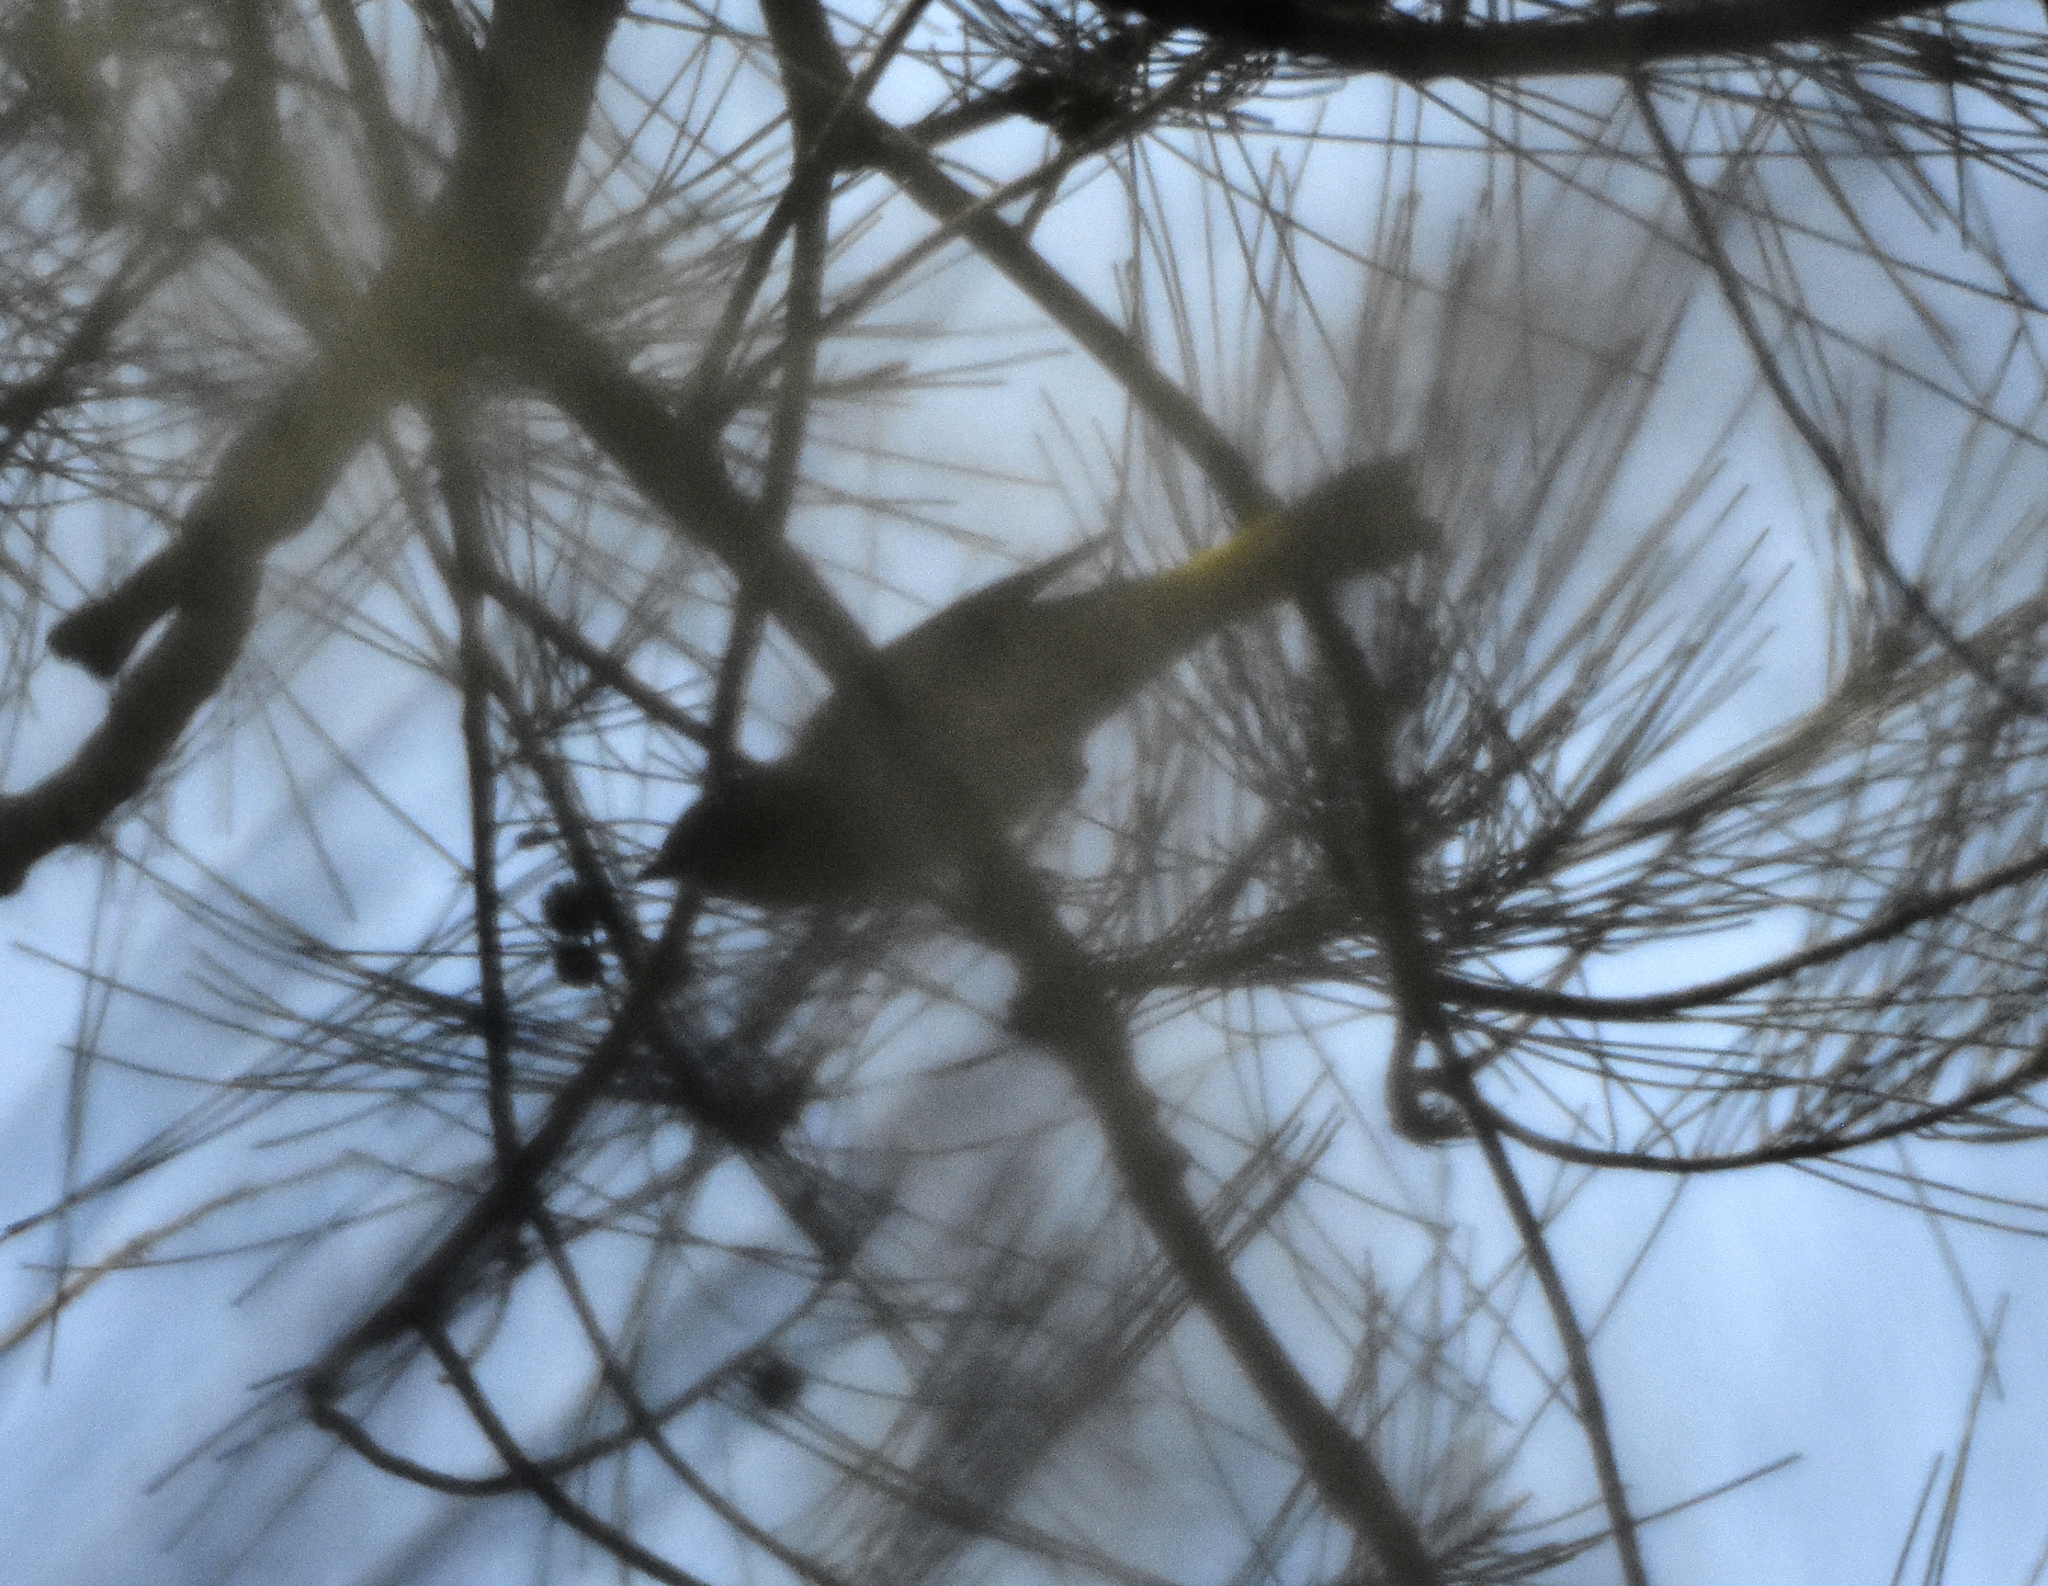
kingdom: Animalia
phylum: Chordata
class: Aves
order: Passeriformes
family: Parulidae
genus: Setophaga
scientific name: Setophaga ruticilla
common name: American redstart
